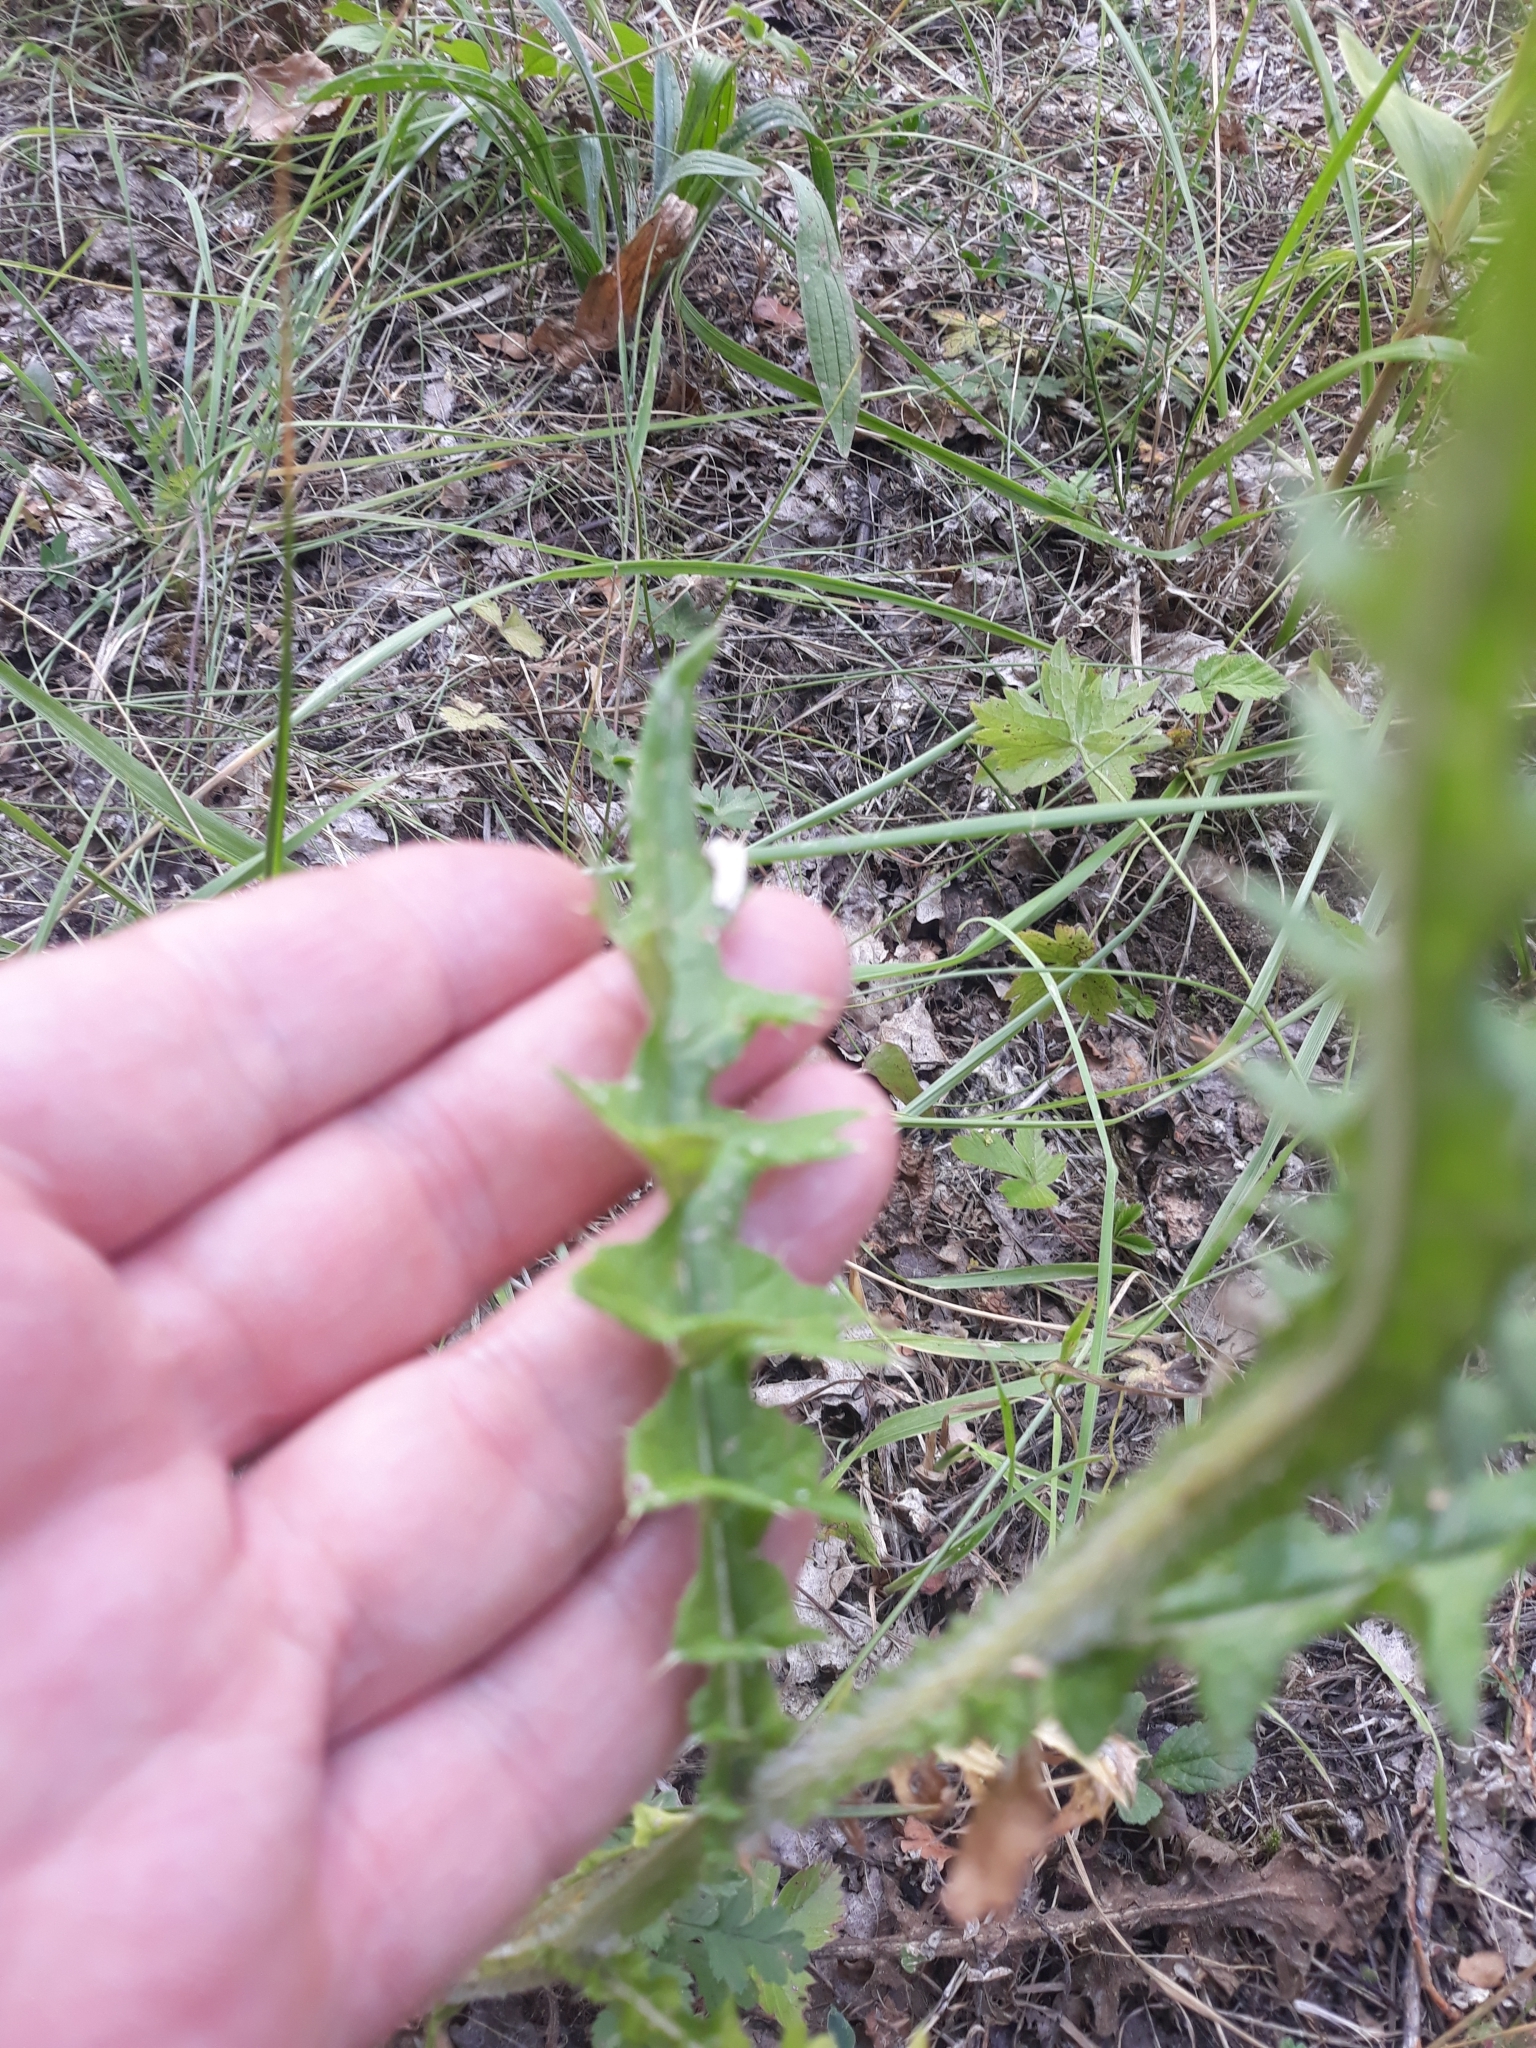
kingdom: Plantae
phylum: Tracheophyta
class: Magnoliopsida
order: Asterales
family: Asteraceae
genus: Cirsium
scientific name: Cirsium vulgare
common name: Bull thistle
